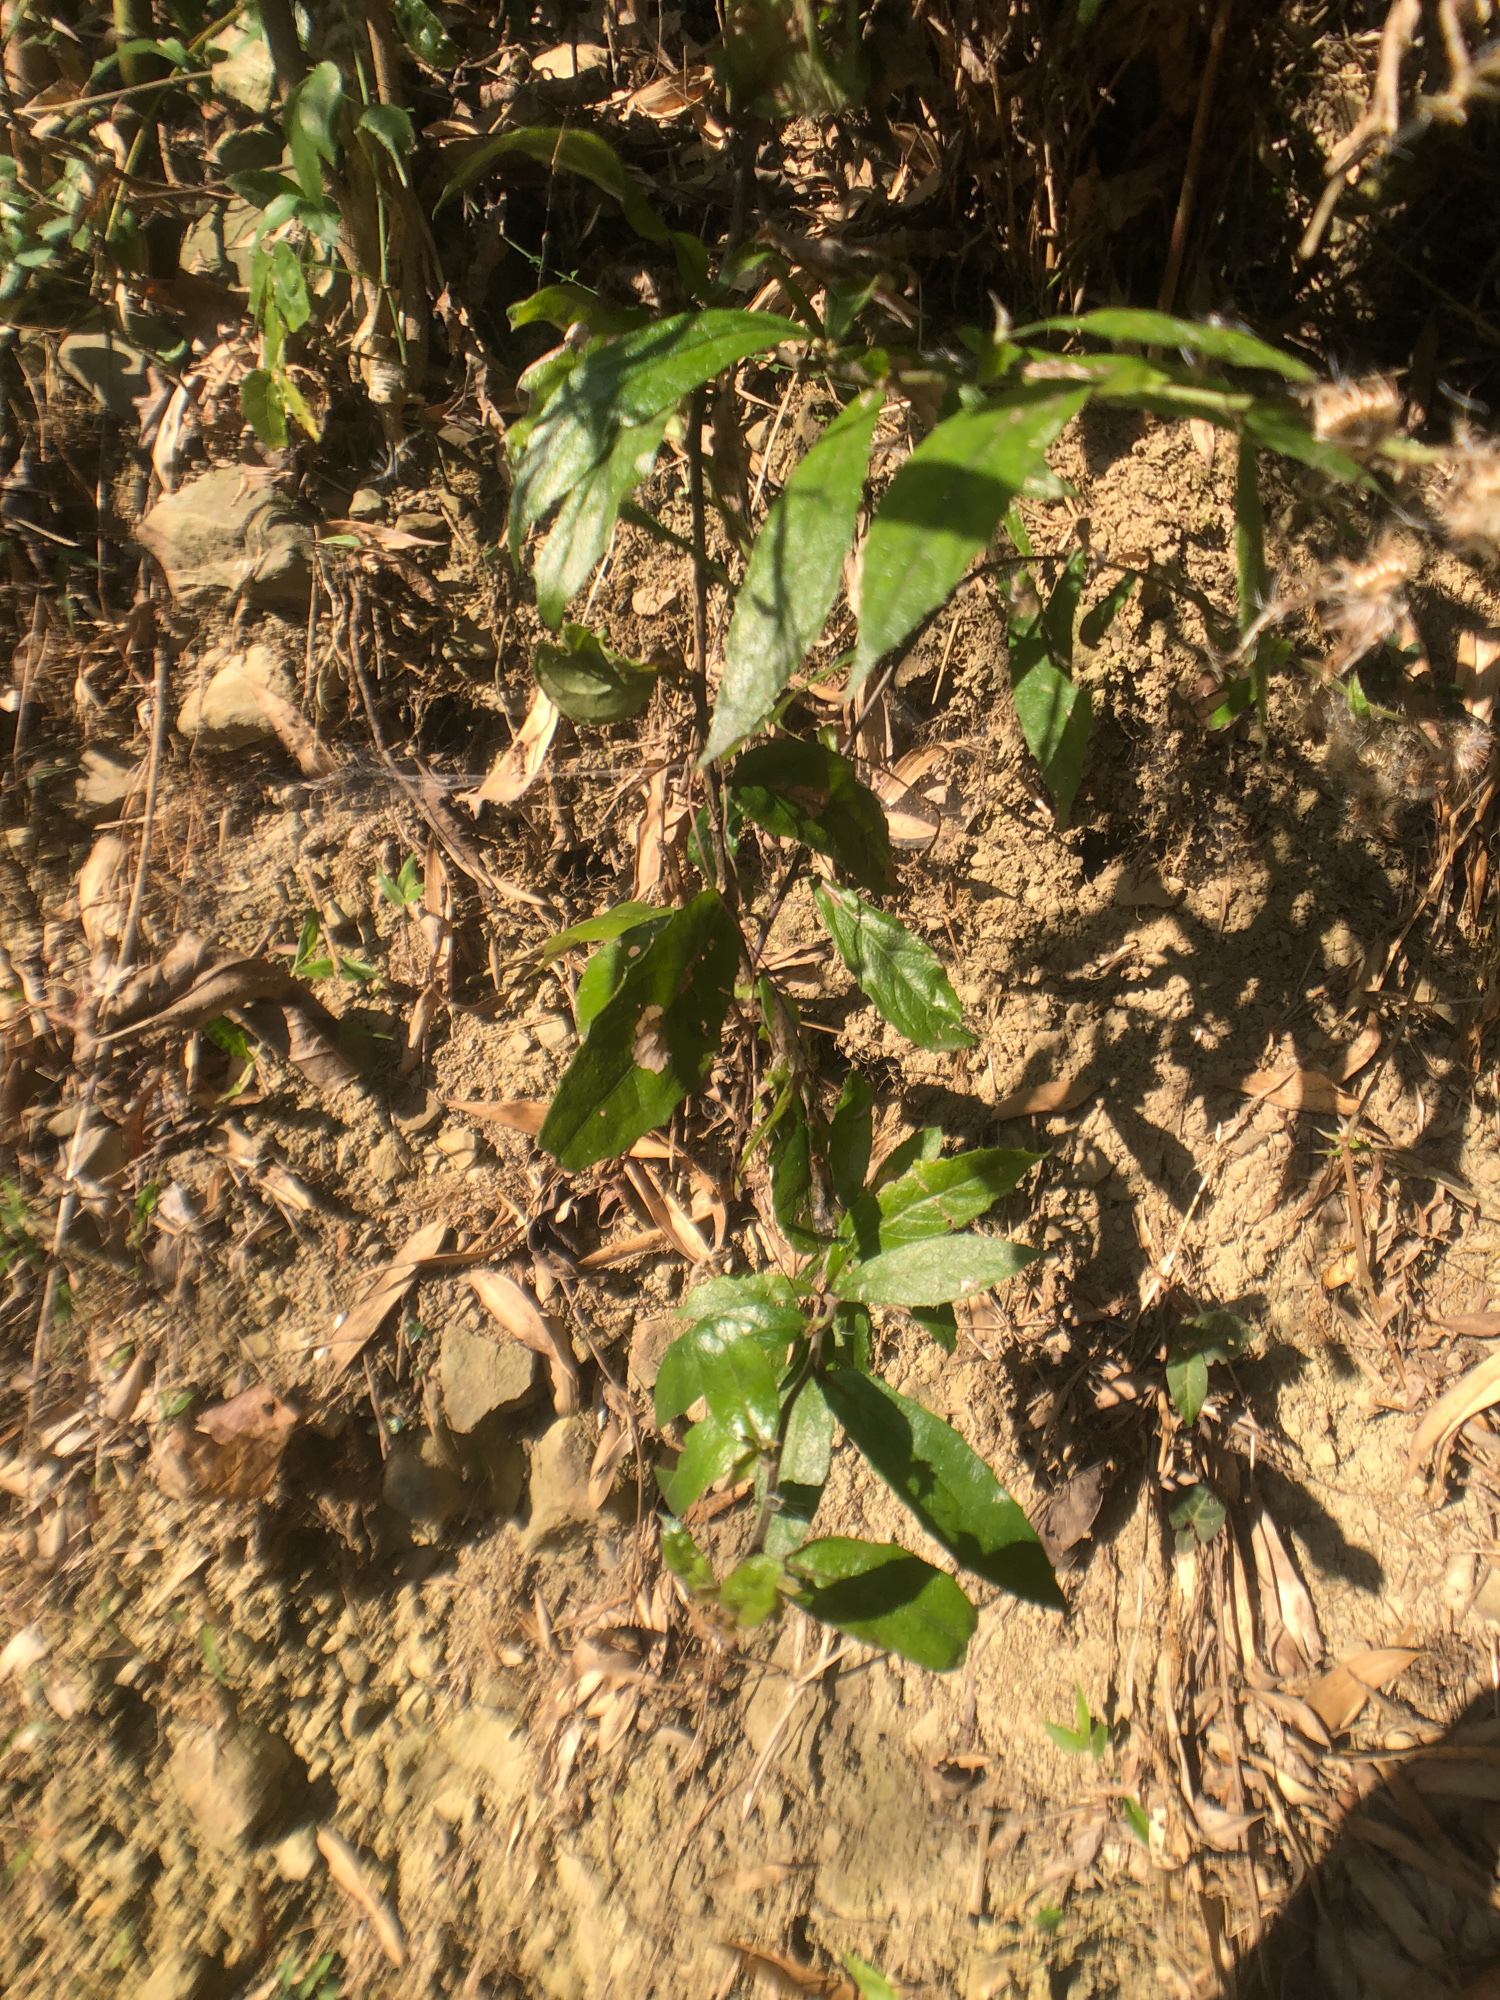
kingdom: Plantae
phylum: Tracheophyta
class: Magnoliopsida
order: Asterales
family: Asteraceae
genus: Blumea
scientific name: Blumea megacephala
